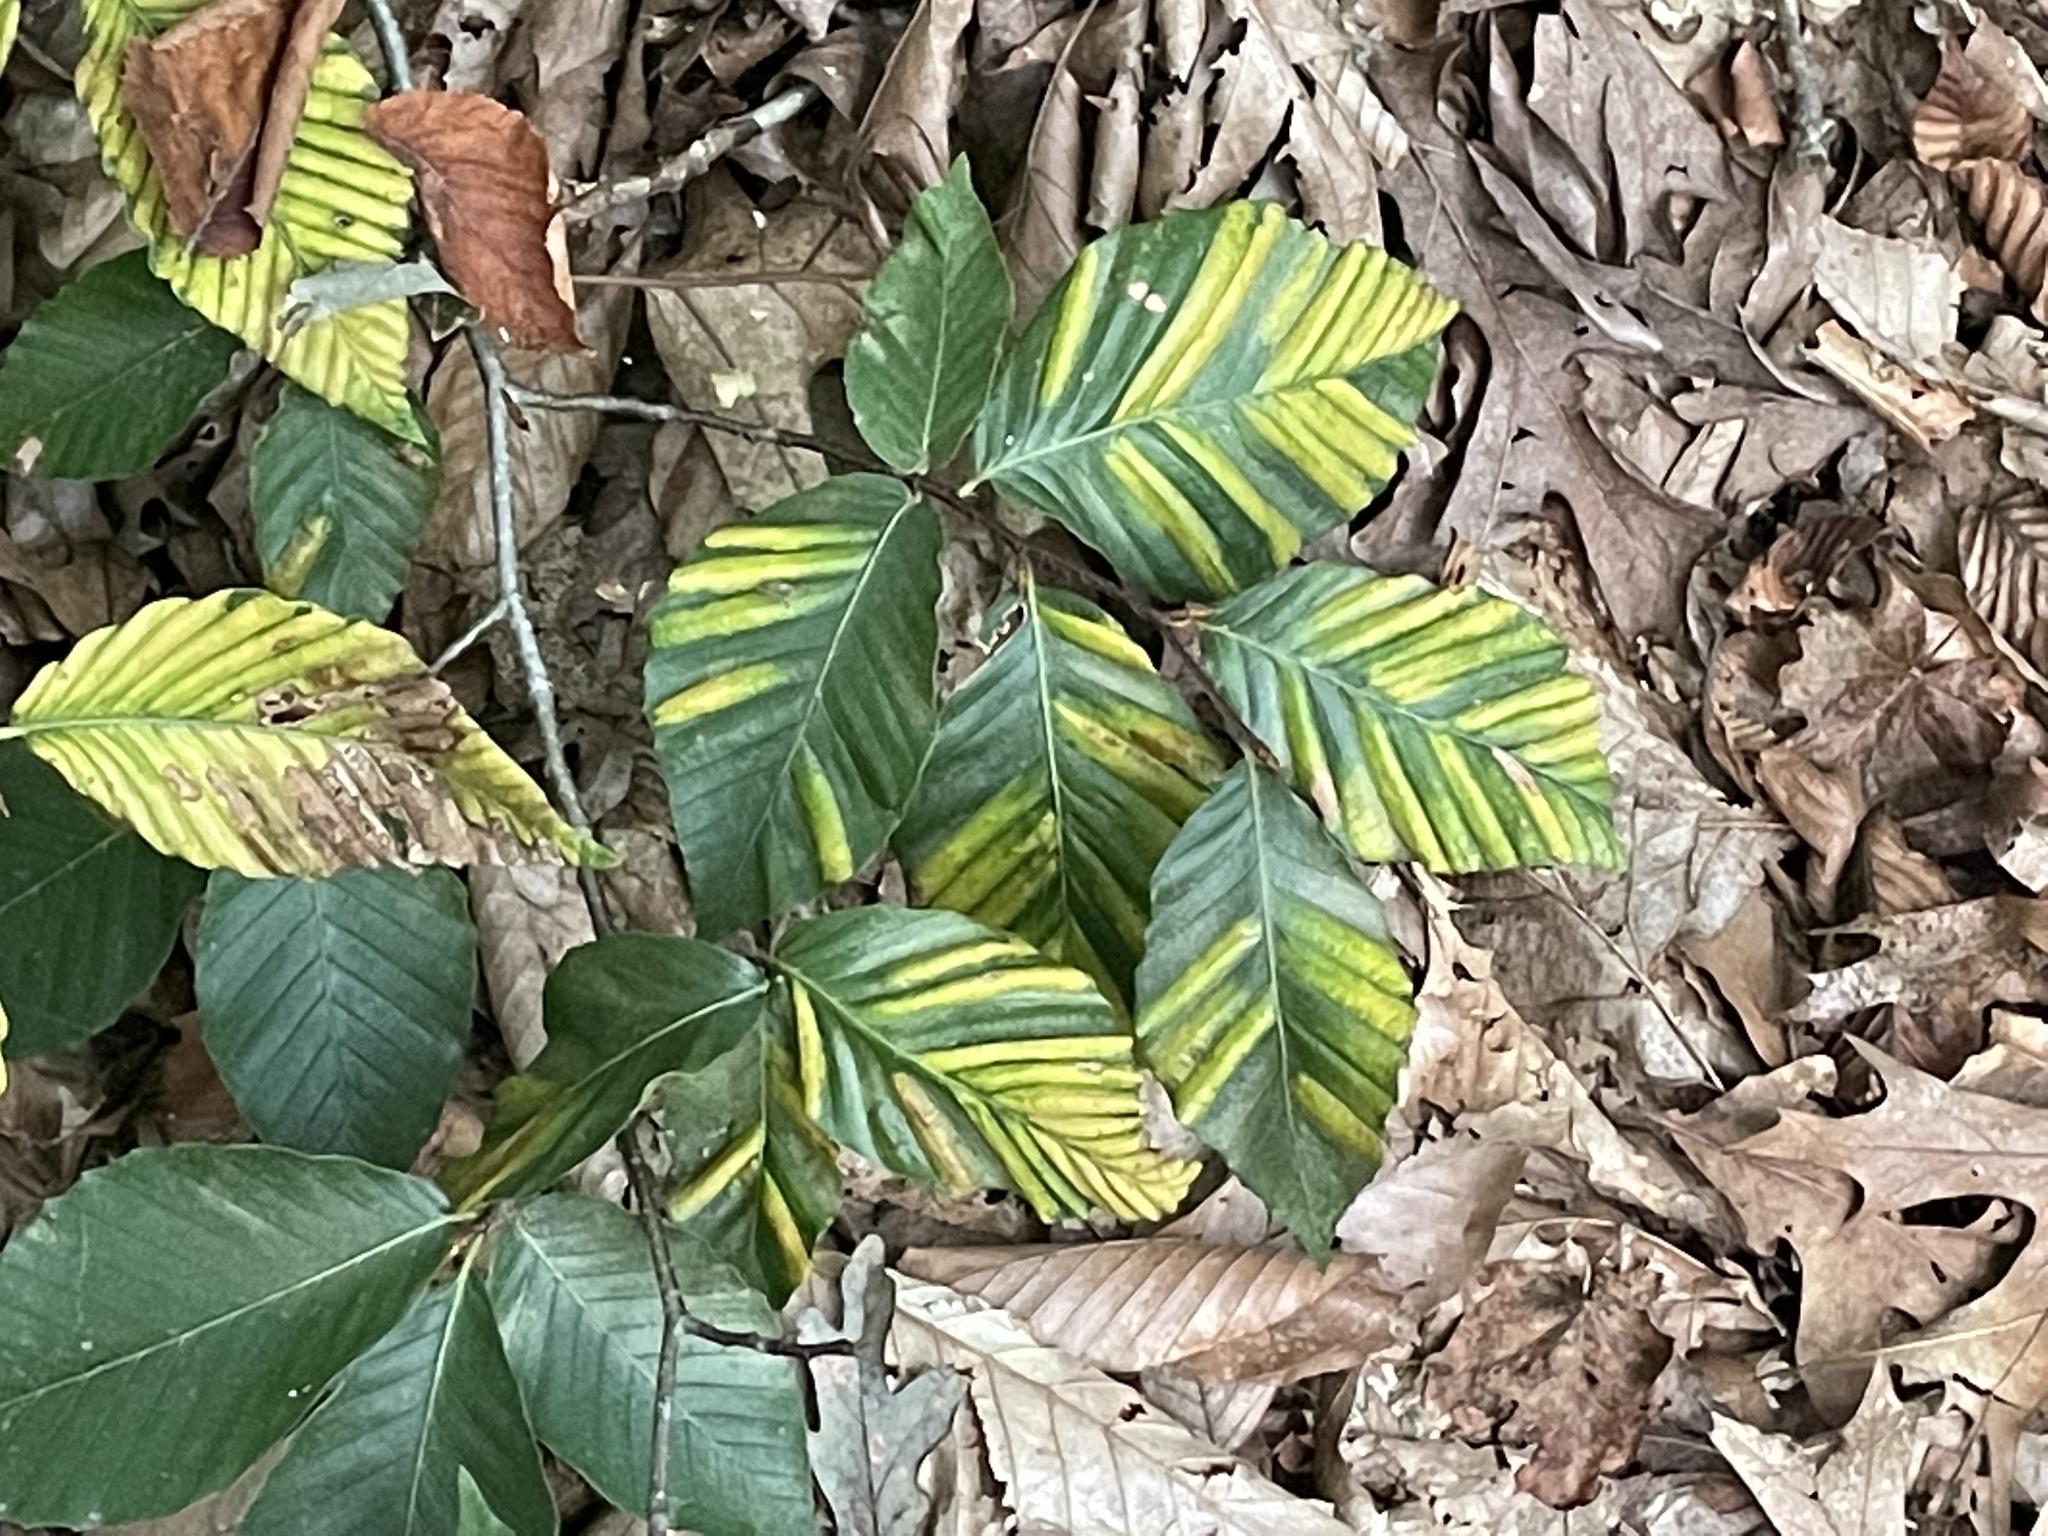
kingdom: Plantae
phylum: Tracheophyta
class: Magnoliopsida
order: Fagales
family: Fagaceae
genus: Fagus
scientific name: Fagus grandifolia
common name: American beech
